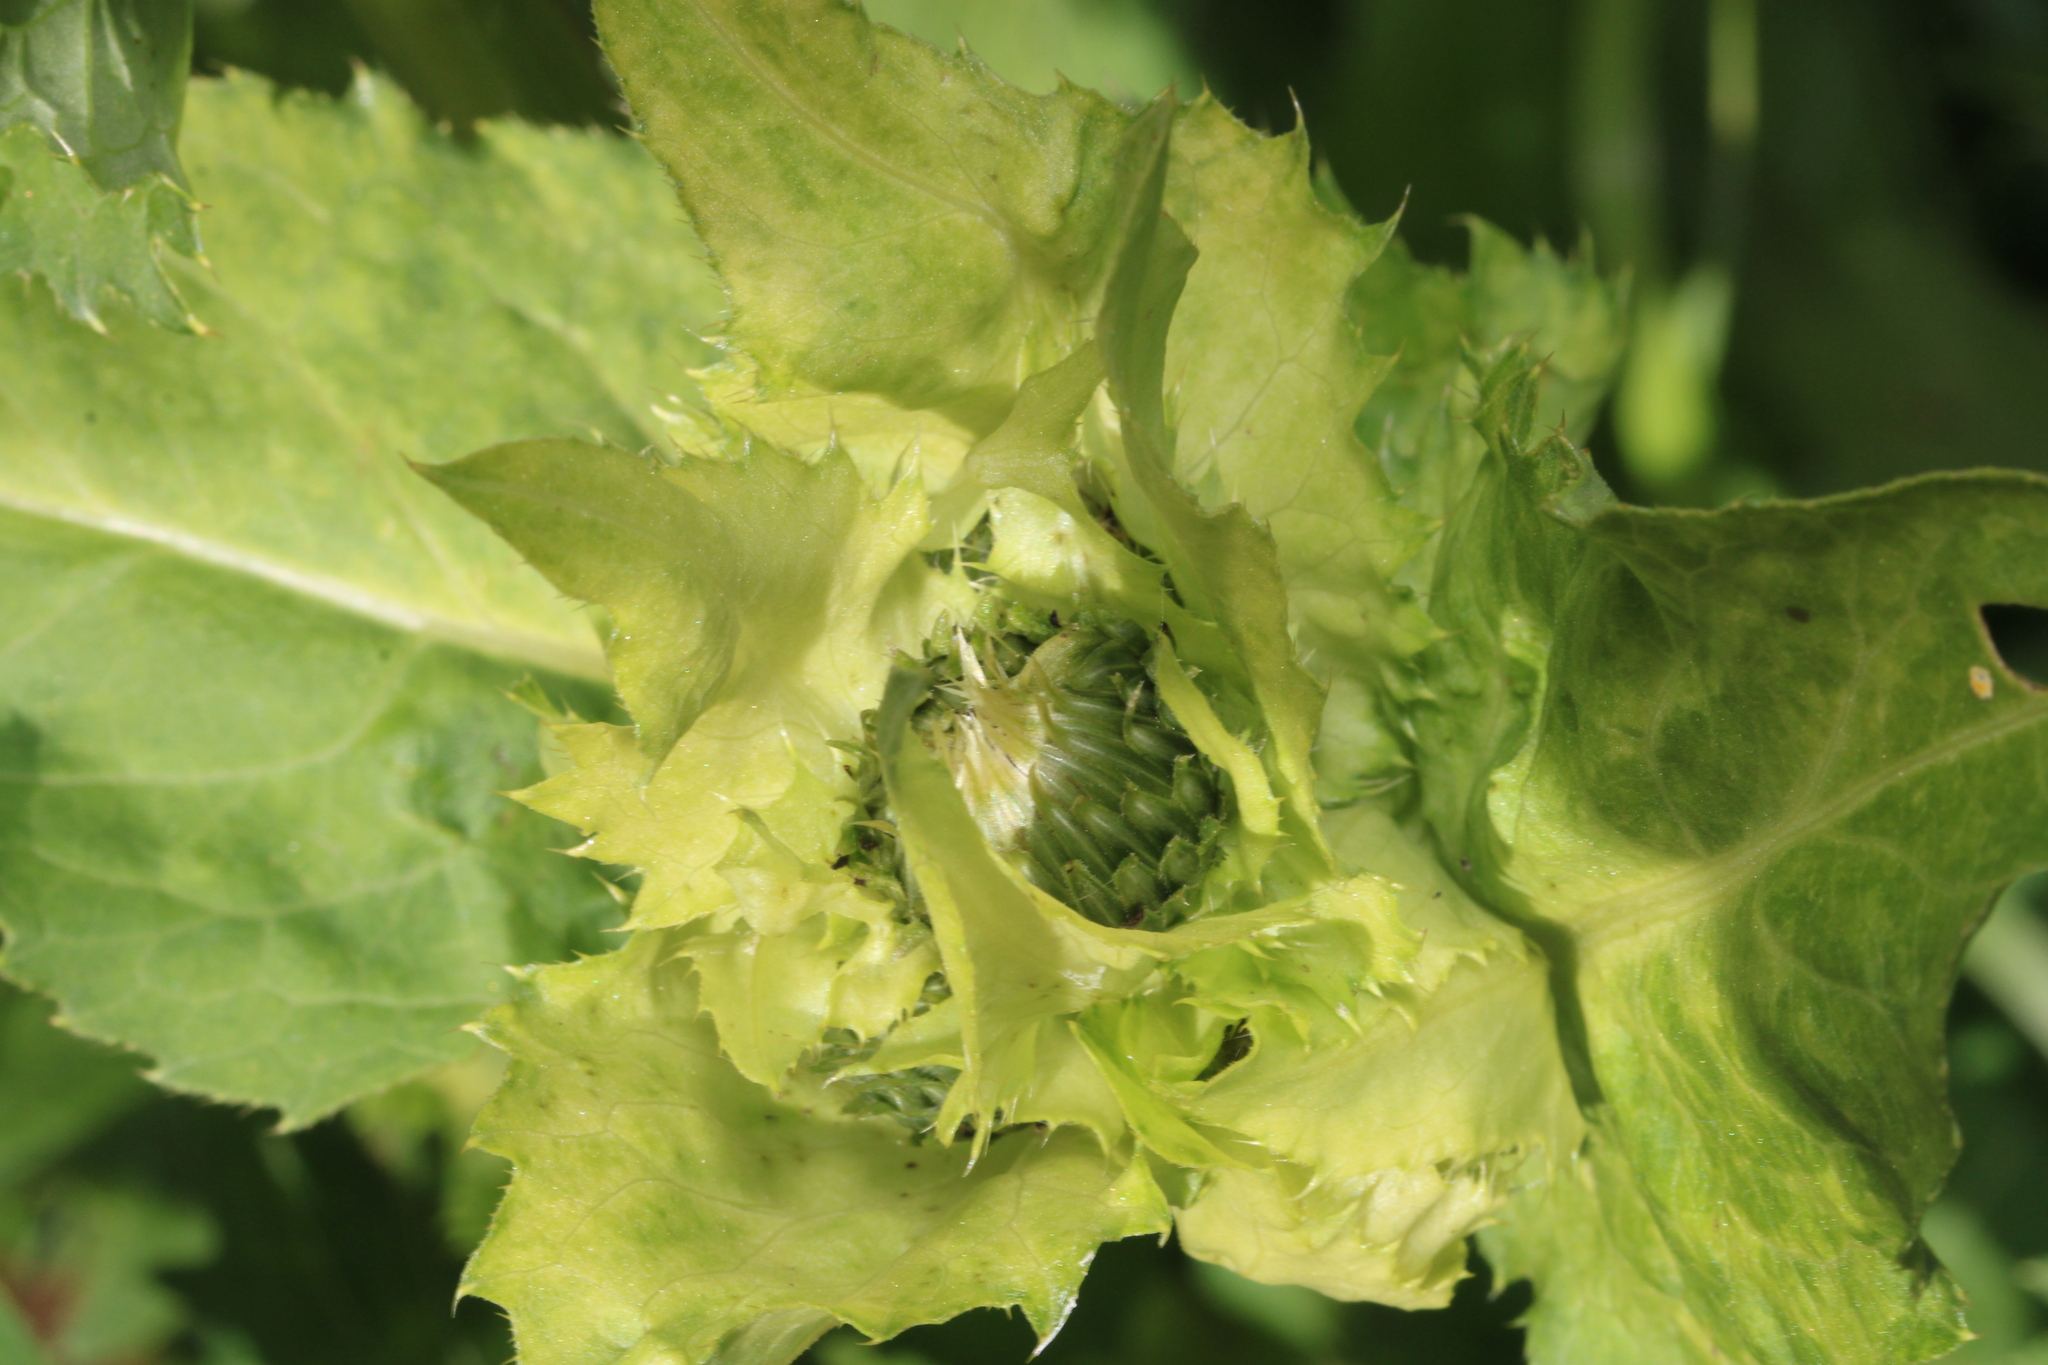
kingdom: Plantae
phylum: Tracheophyta
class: Magnoliopsida
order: Asterales
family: Asteraceae
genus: Cirsium
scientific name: Cirsium oleraceum
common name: Cabbage thistle
